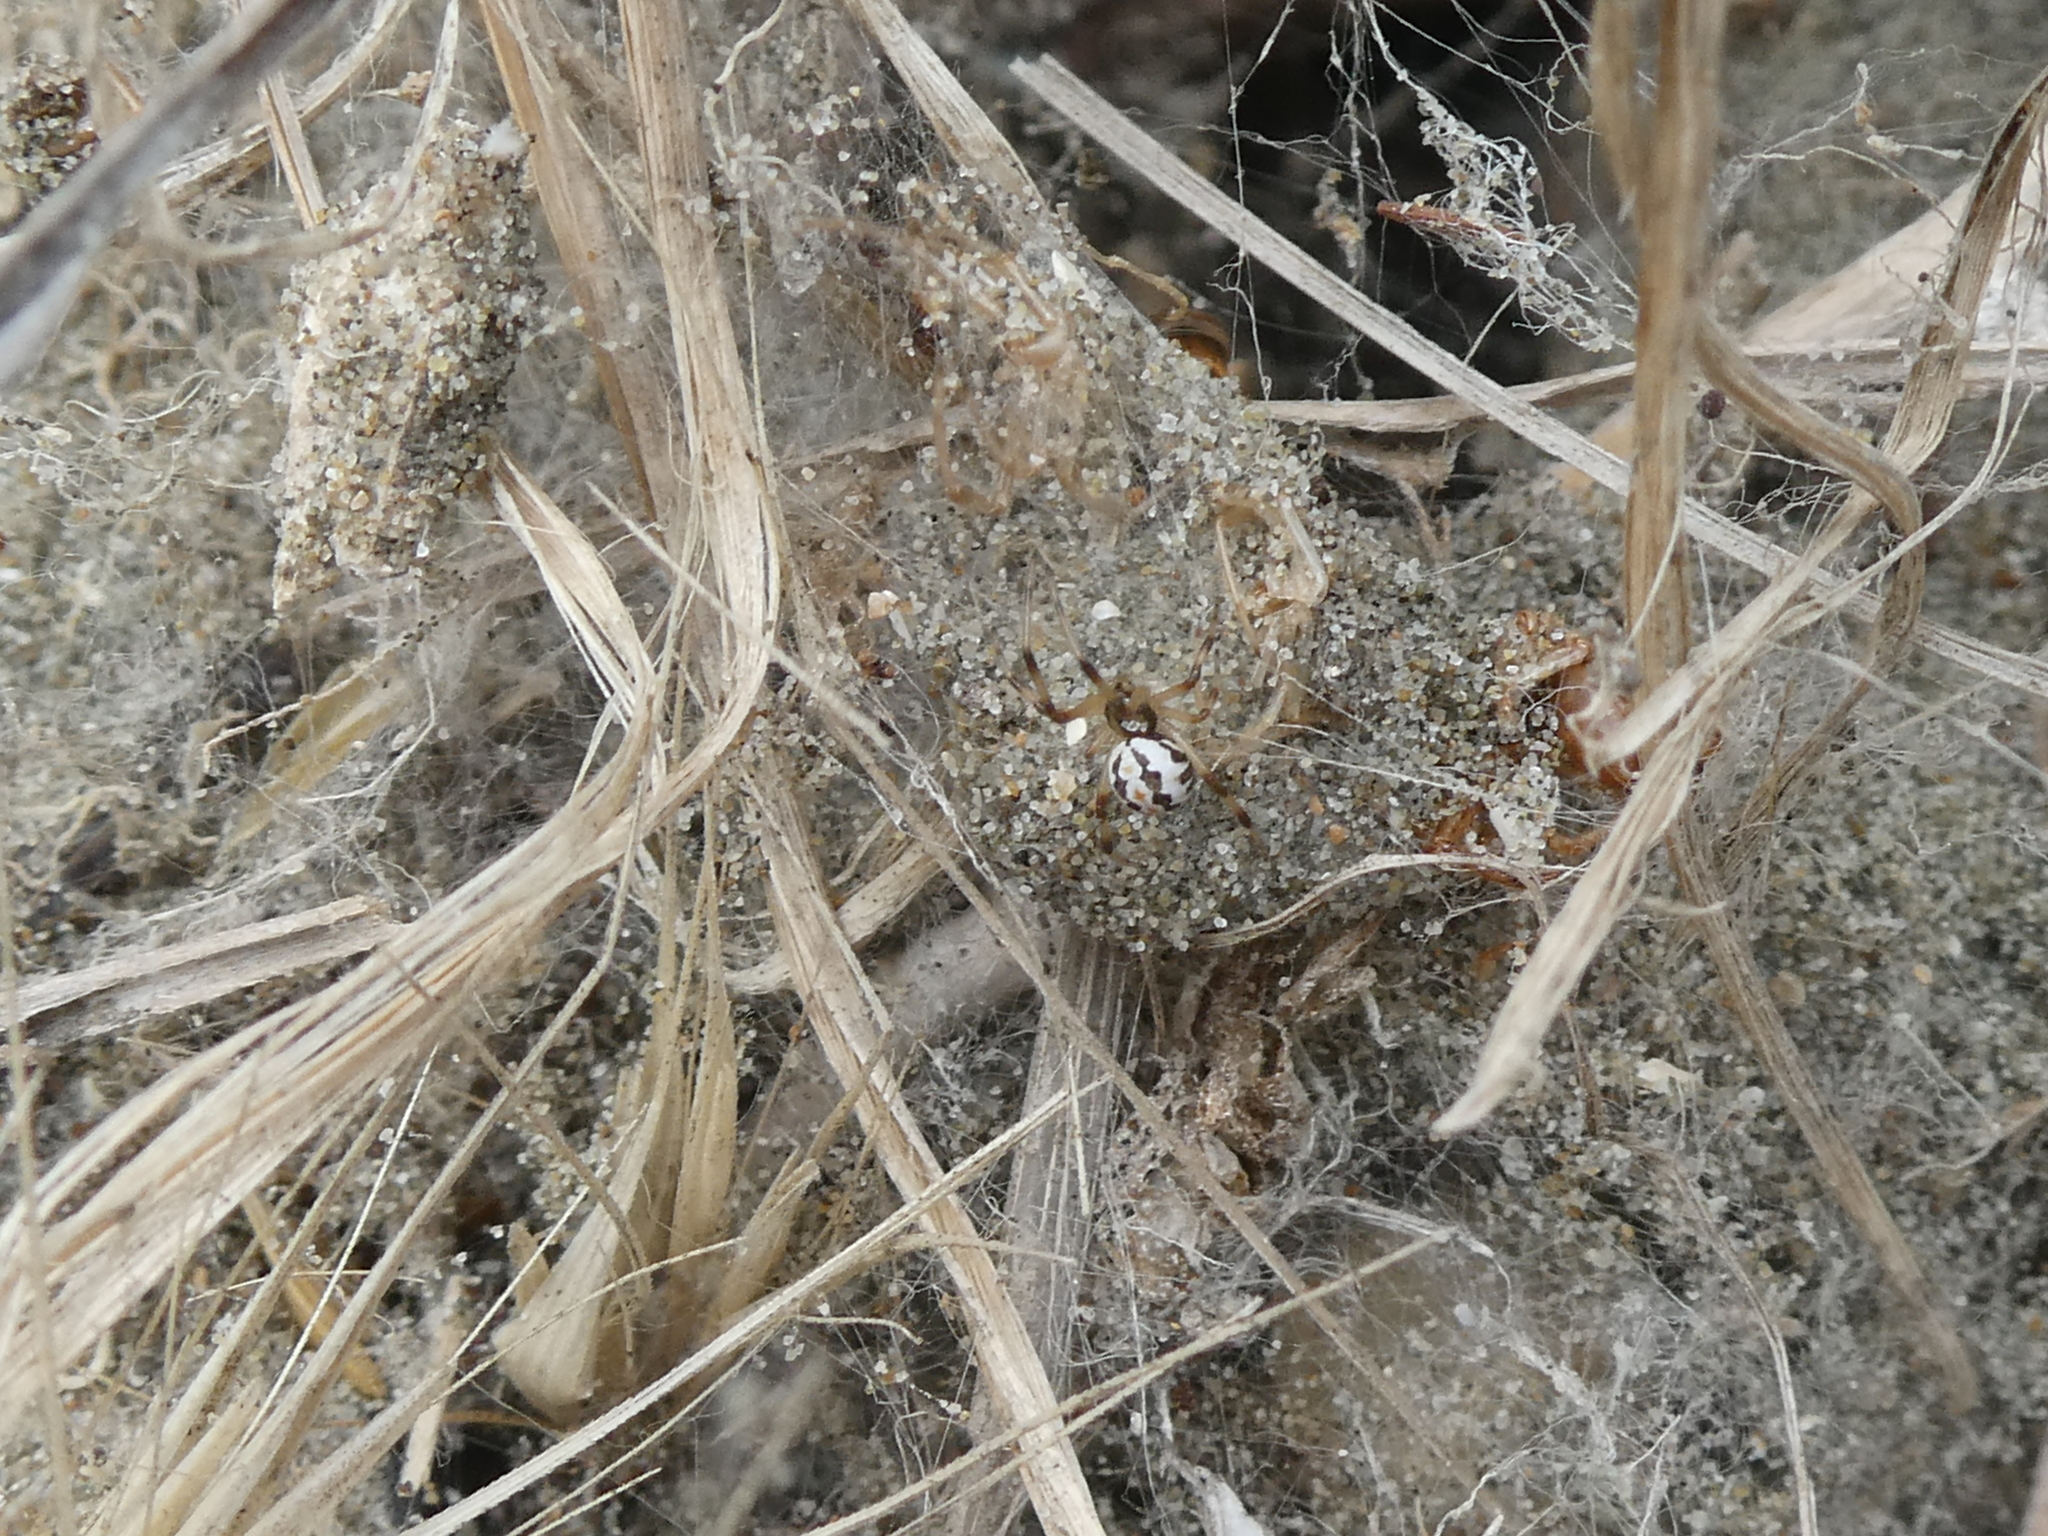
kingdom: Animalia
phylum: Arthropoda
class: Arachnida
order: Araneae
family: Theridiidae
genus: Latrodectus
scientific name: Latrodectus katipo
